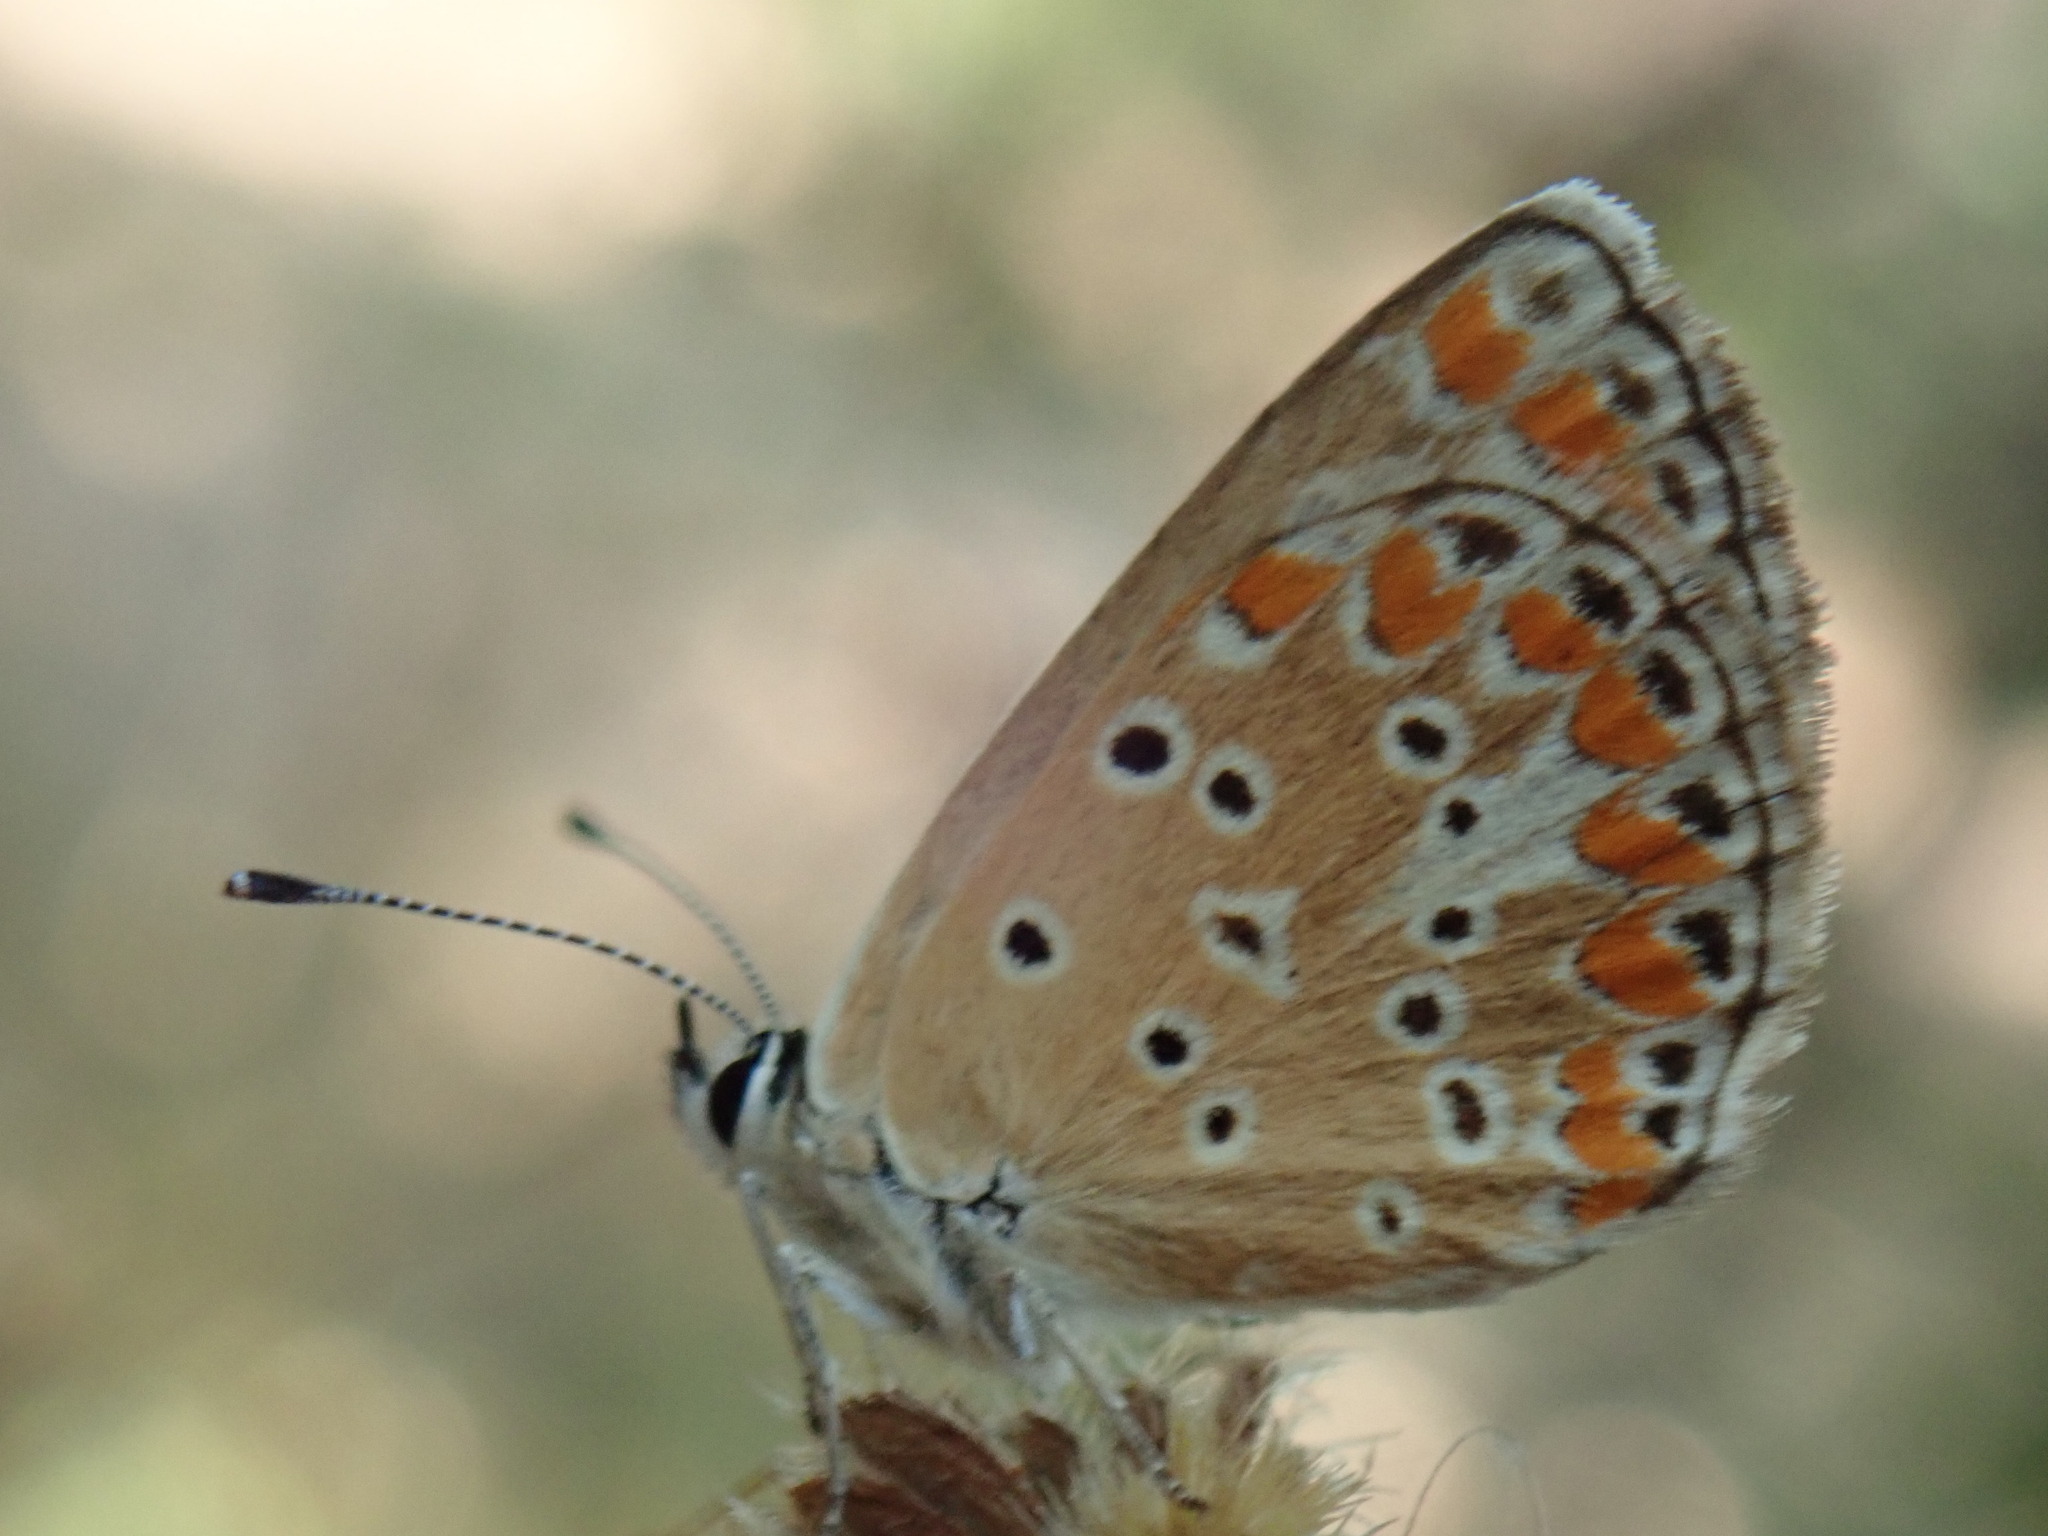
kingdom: Animalia
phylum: Arthropoda
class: Insecta
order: Lepidoptera
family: Lycaenidae
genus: Aricia
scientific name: Aricia agestis
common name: Brown argus
